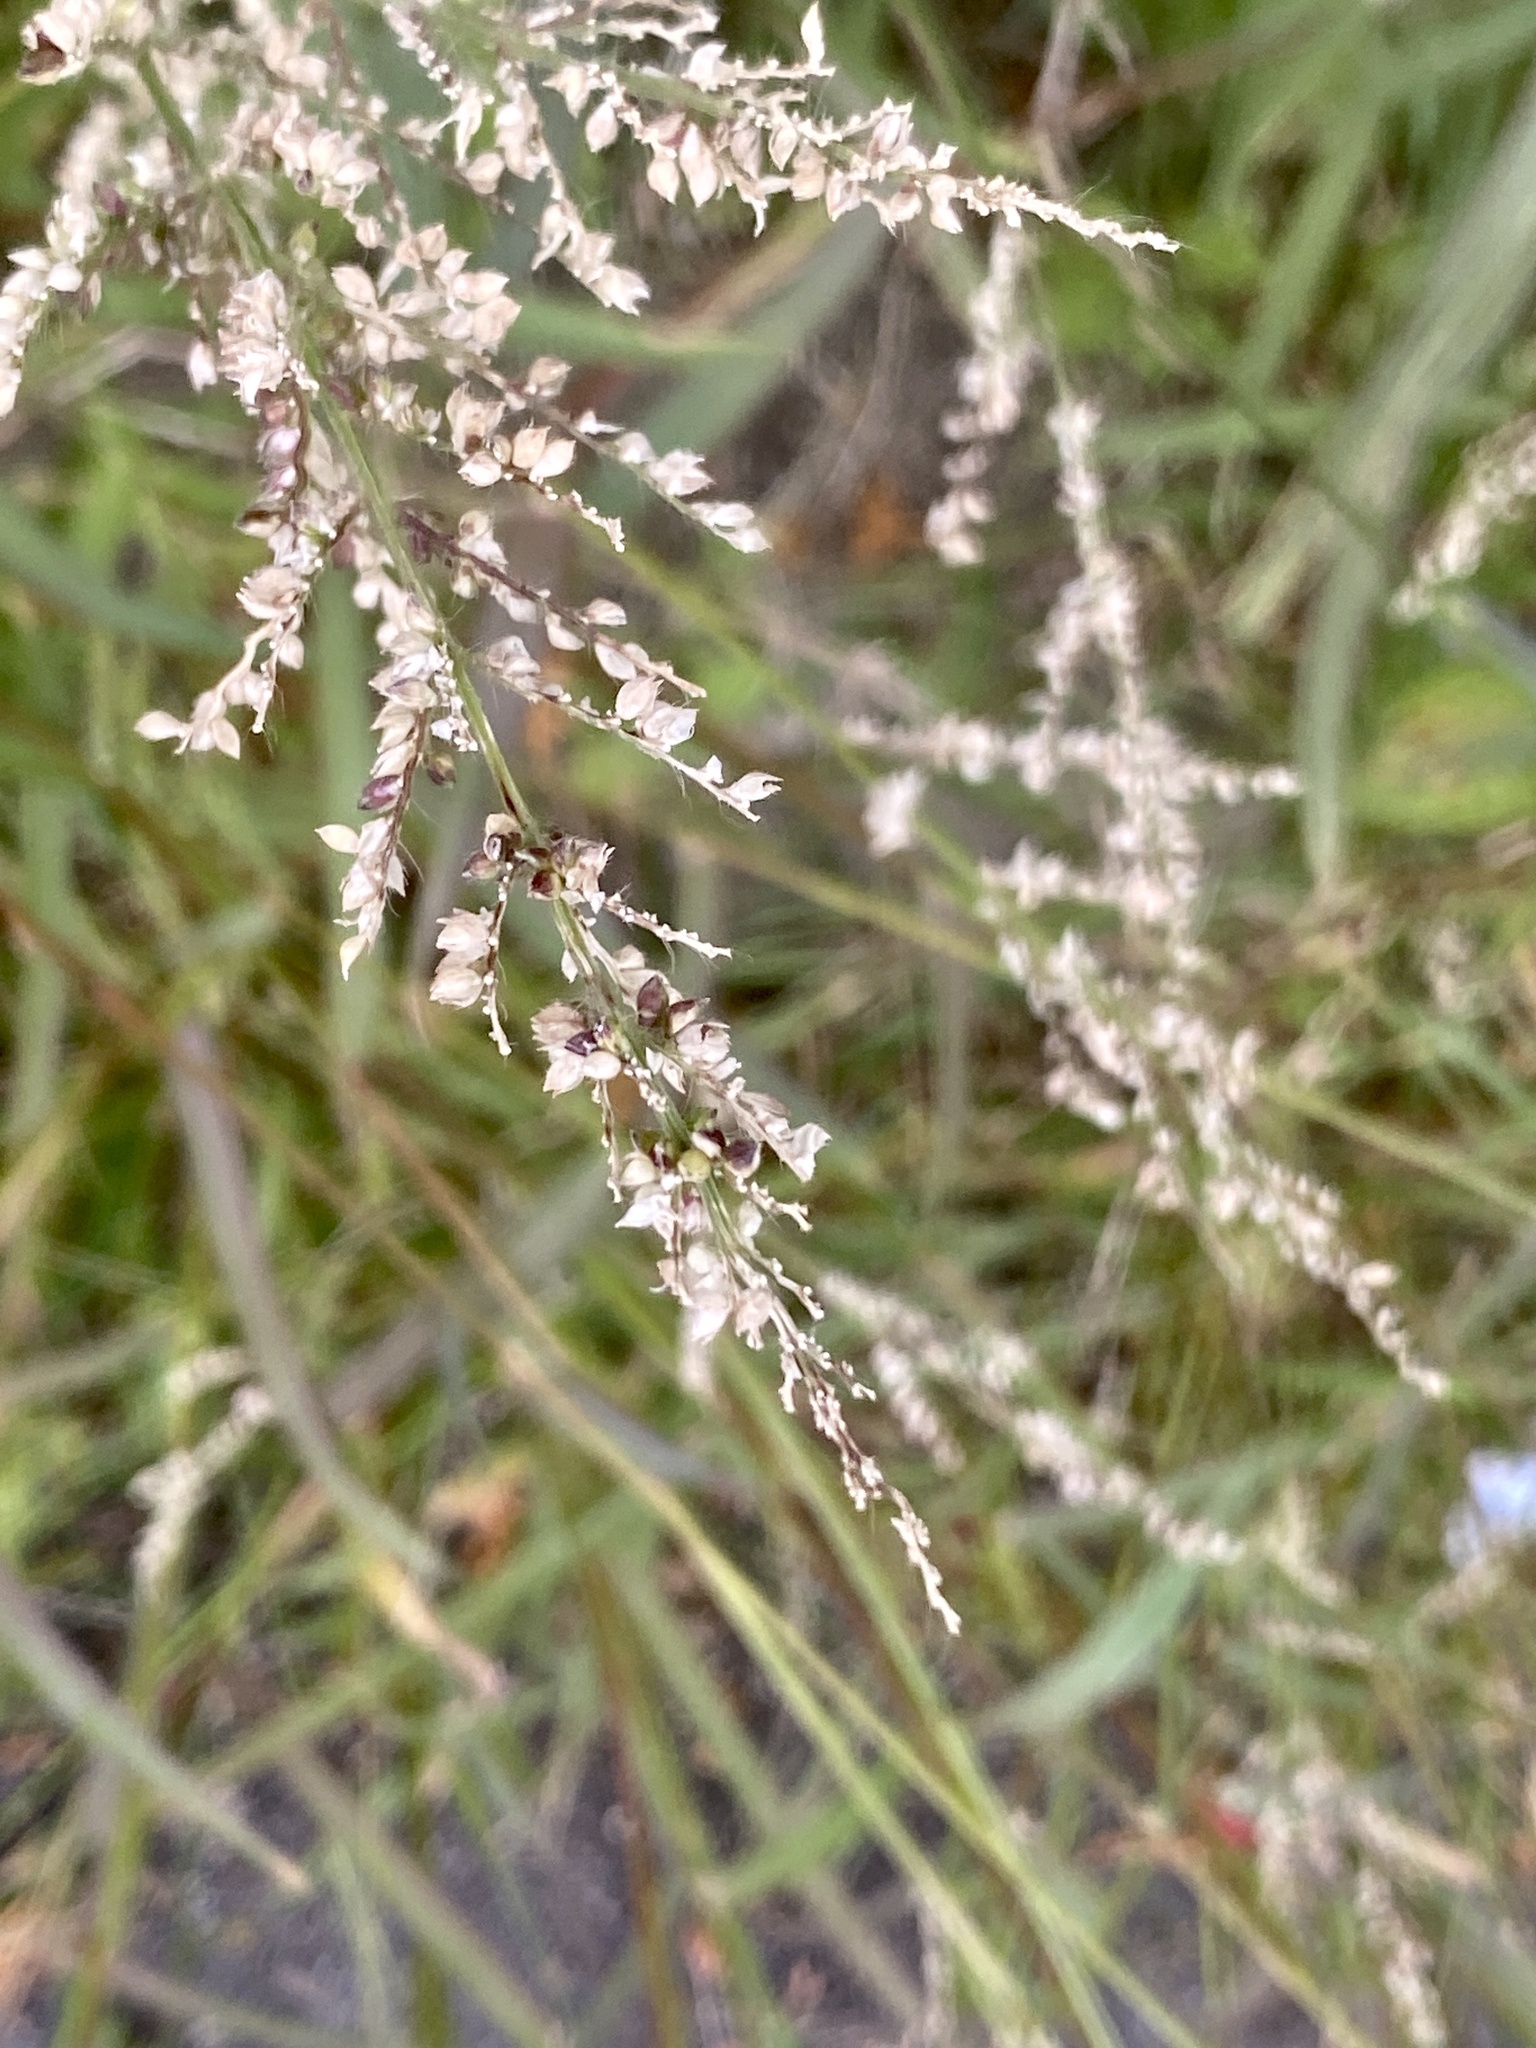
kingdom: Plantae
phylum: Tracheophyta
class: Liliopsida
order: Poales
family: Poaceae
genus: Echinochloa
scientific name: Echinochloa crus-galli
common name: Cockspur
